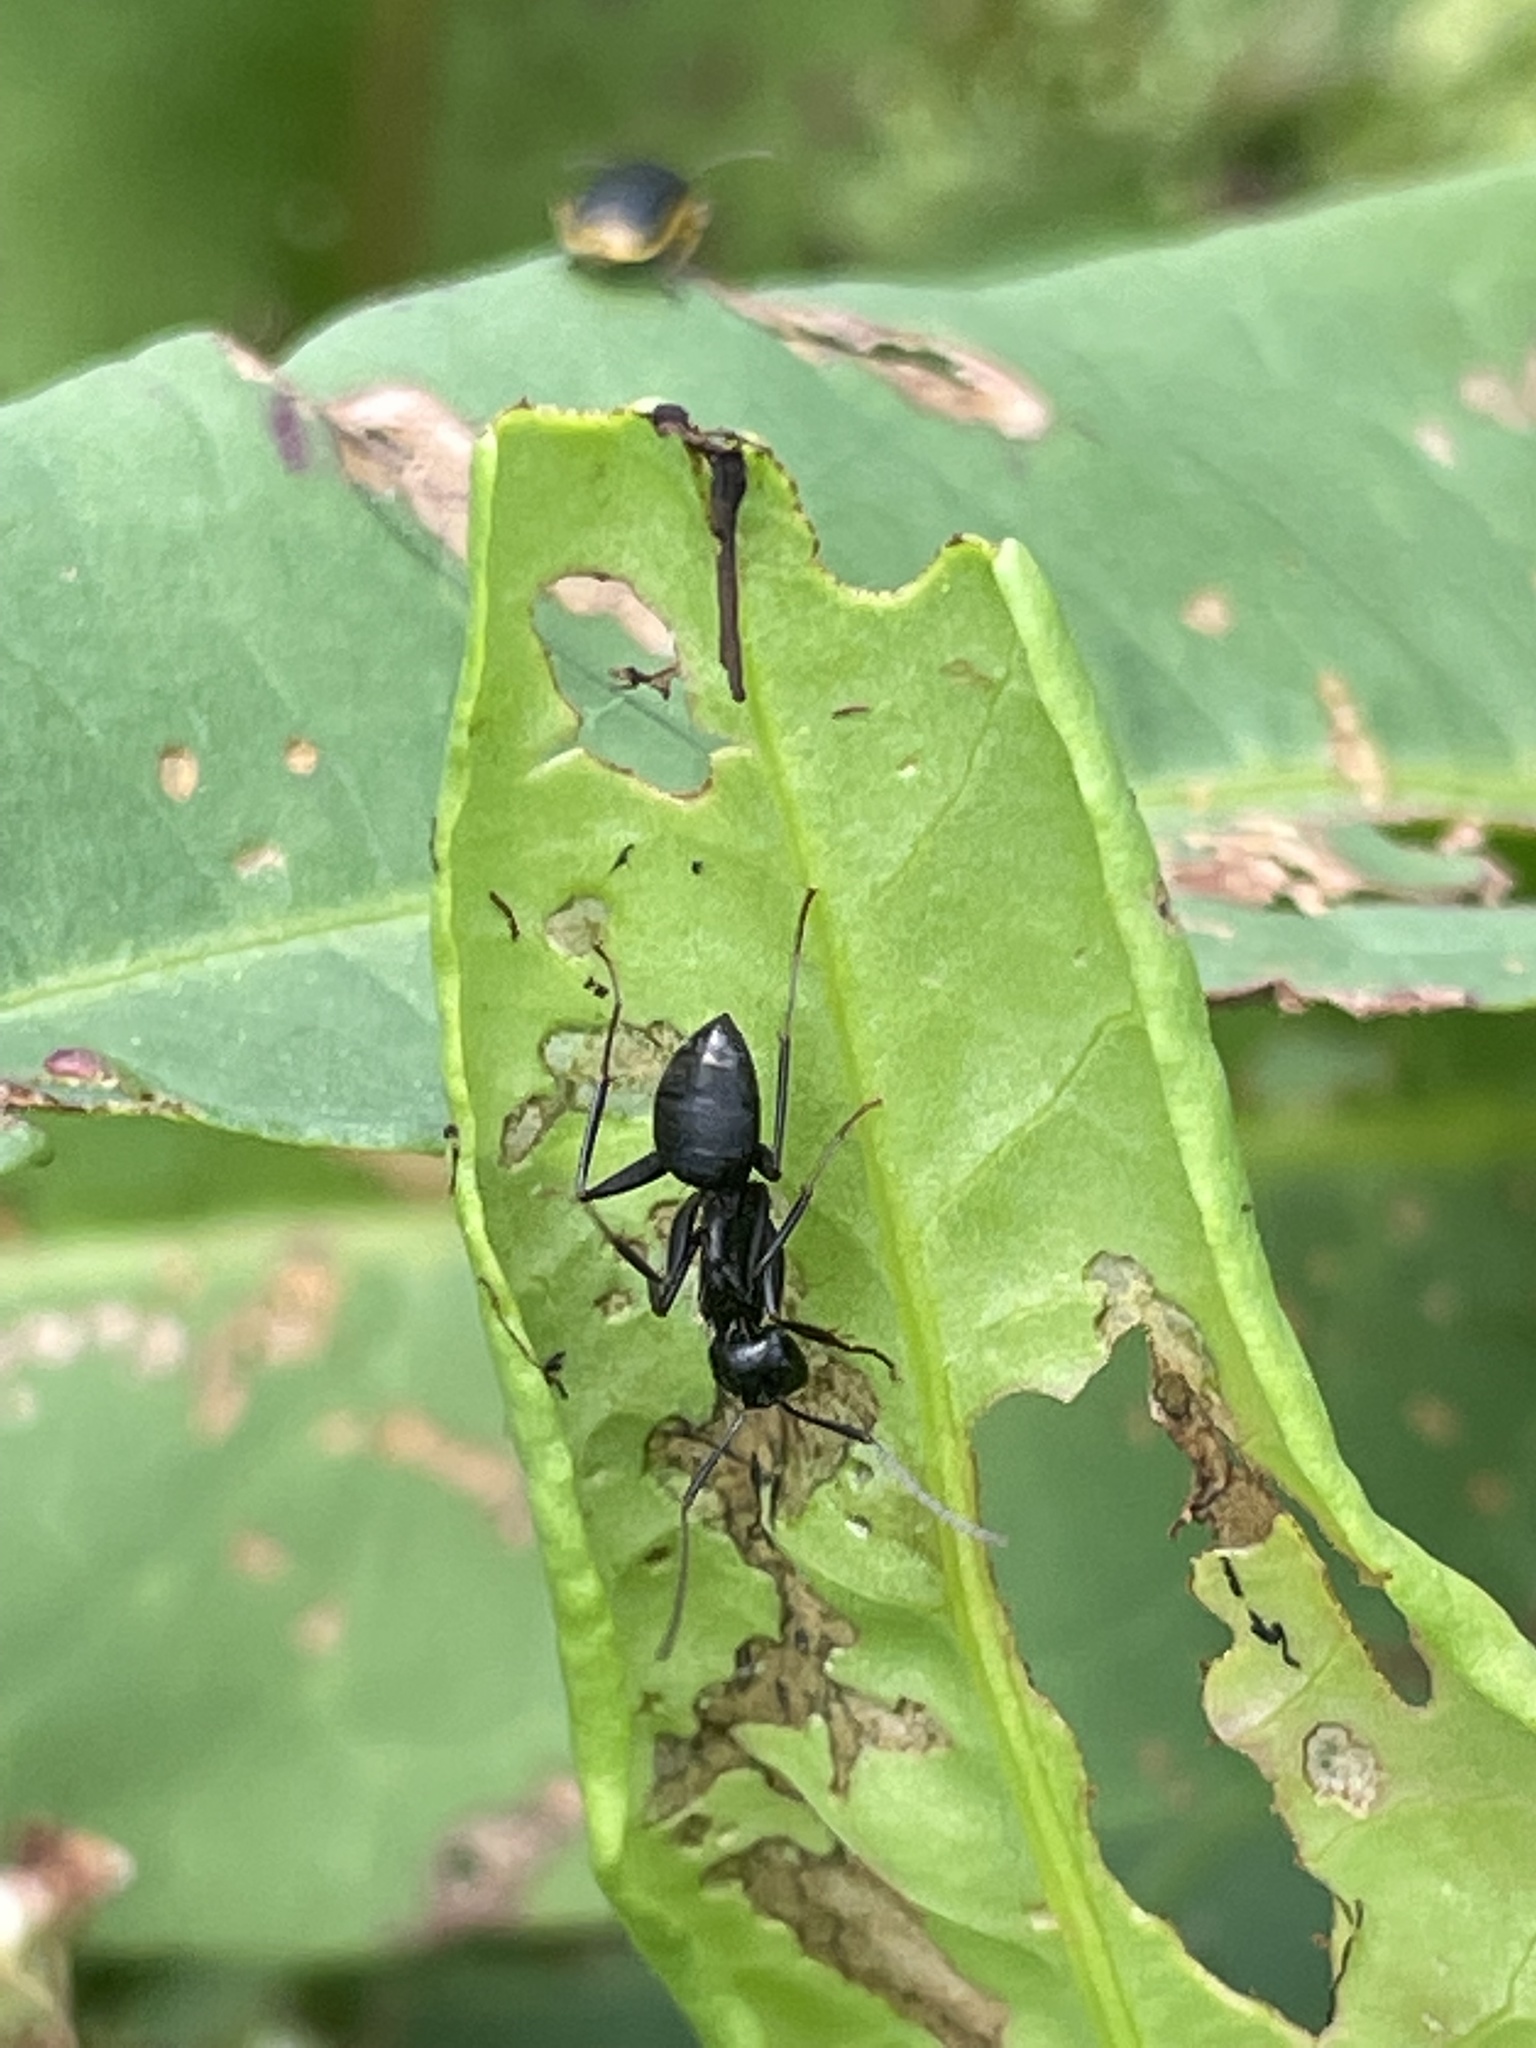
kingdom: Animalia
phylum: Arthropoda
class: Insecta
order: Hymenoptera
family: Formicidae
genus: Camponotus
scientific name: Camponotus pennsylvanicus
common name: Black carpenter ant
